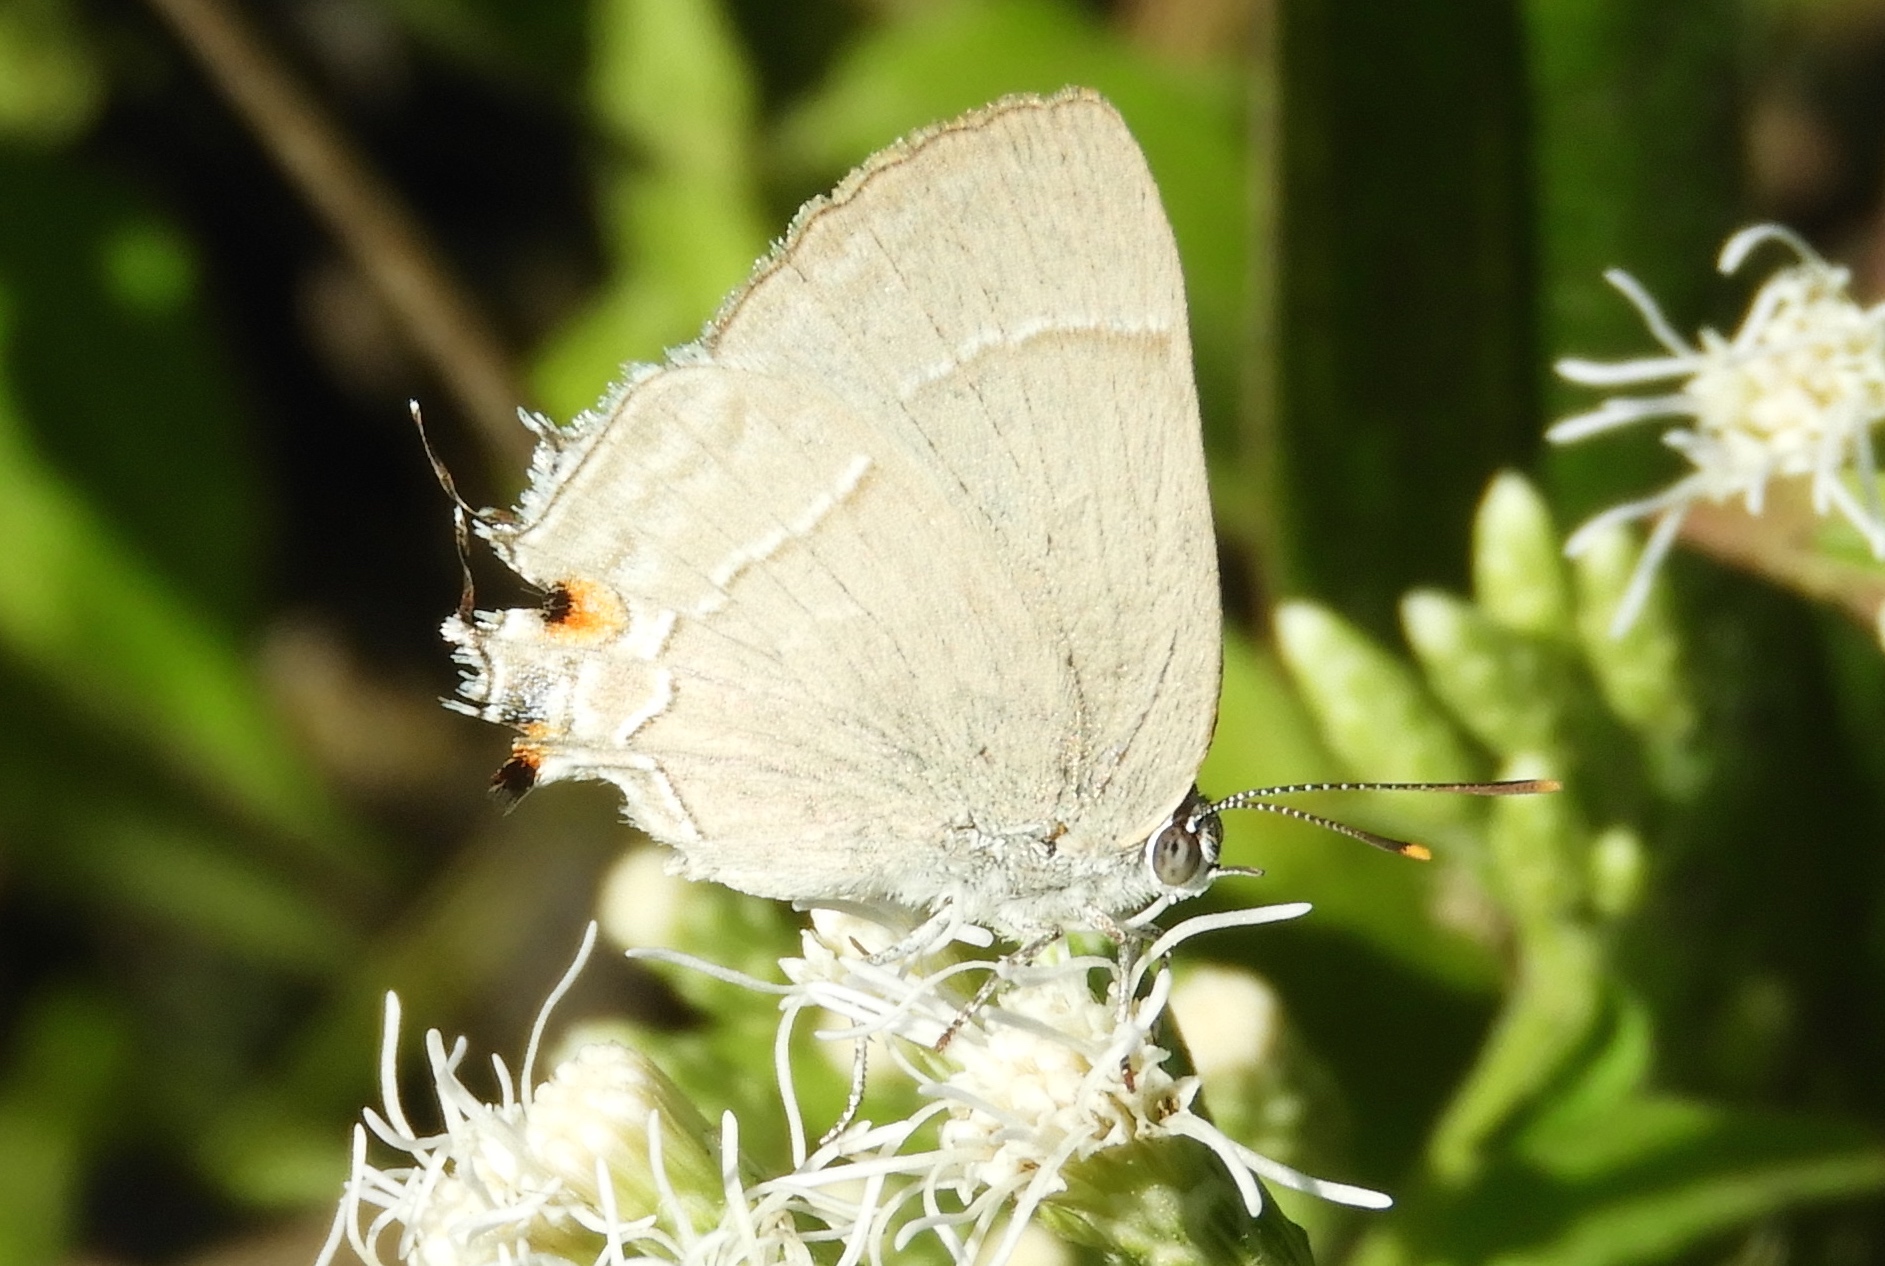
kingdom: Animalia
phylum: Arthropoda
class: Insecta
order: Lepidoptera
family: Lycaenidae
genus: Thecla
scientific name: Thecla marius
